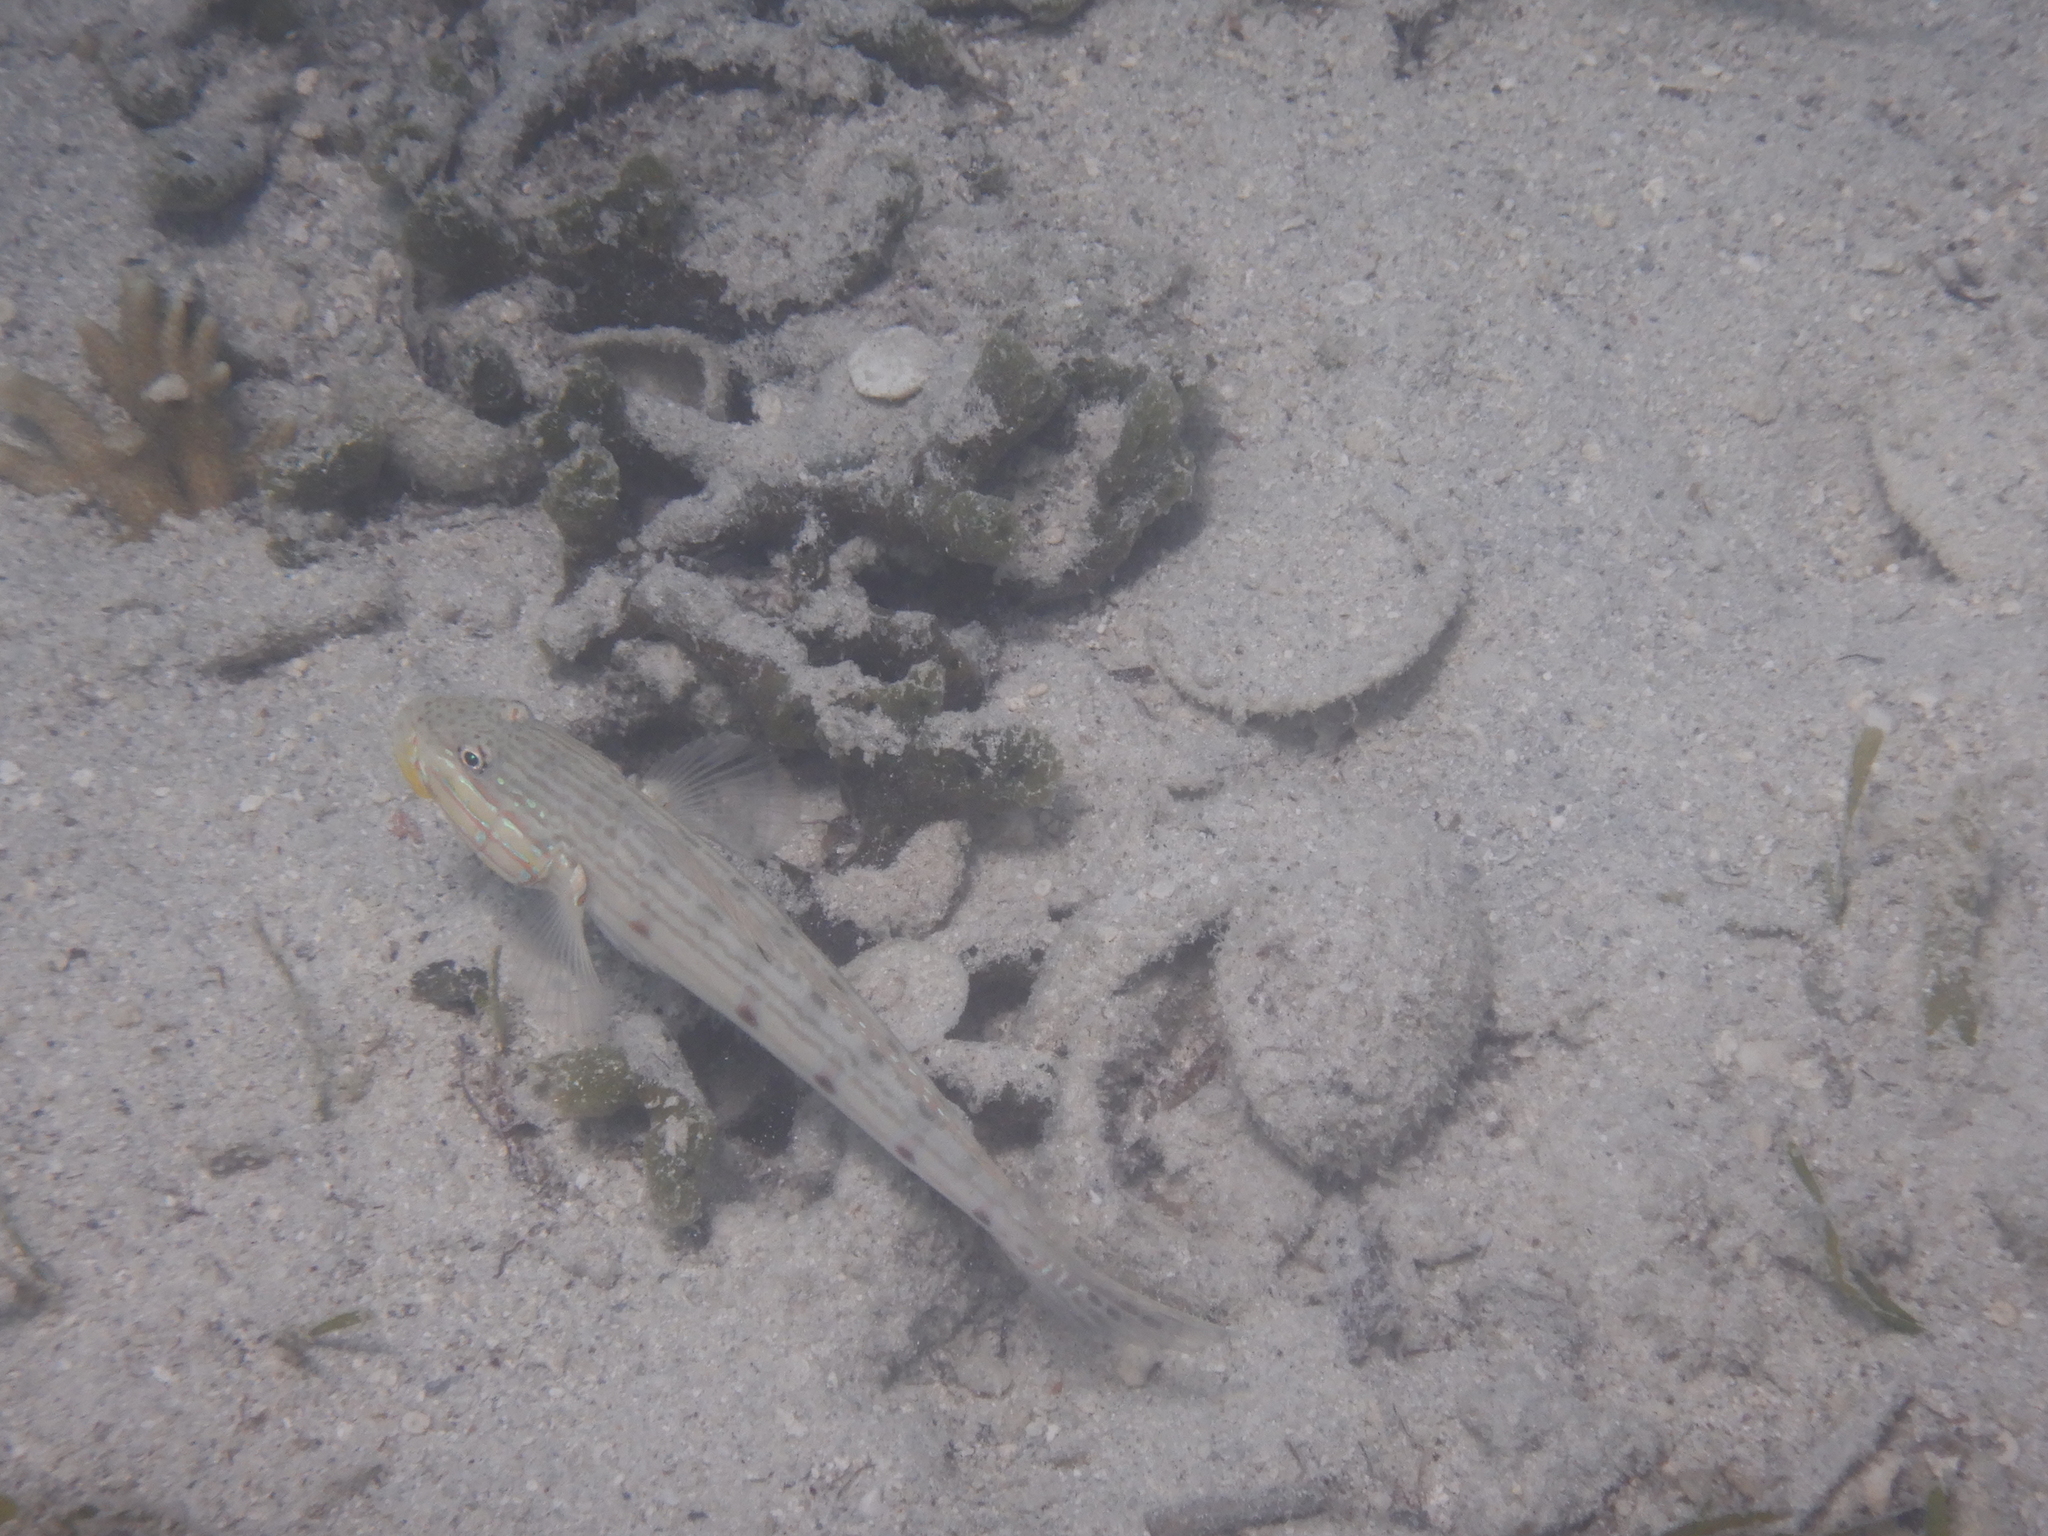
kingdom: Animalia
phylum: Chordata
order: Perciformes
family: Gobiidae
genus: Valenciennea
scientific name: Valenciennea longipinnis
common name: Longfinned goby
